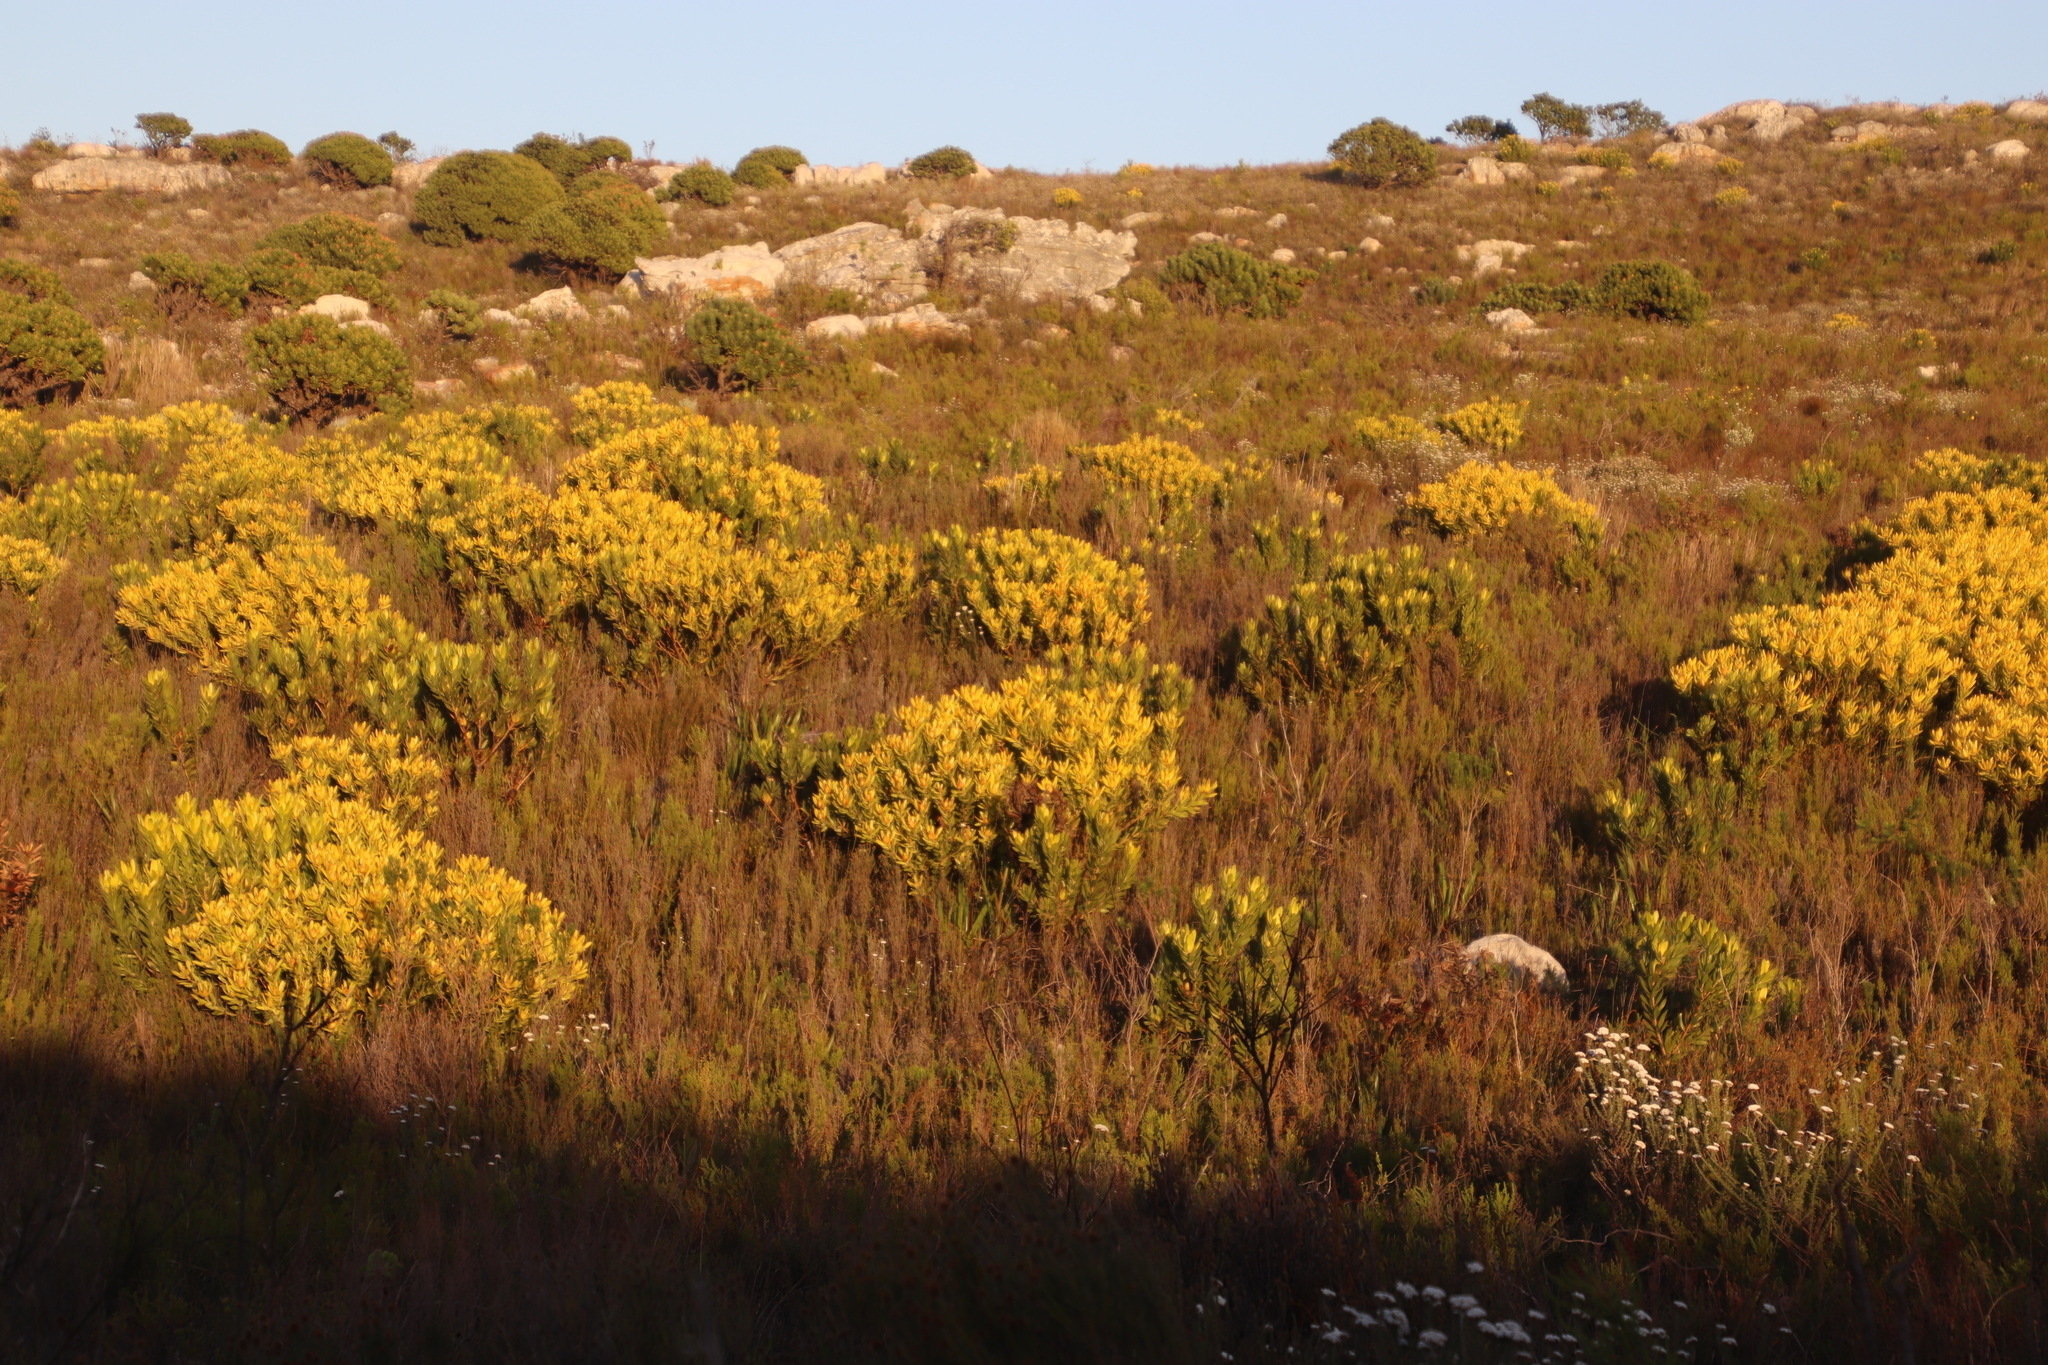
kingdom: Plantae
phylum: Tracheophyta
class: Magnoliopsida
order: Proteales
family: Proteaceae
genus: Leucadendron
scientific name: Leucadendron laureolum
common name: Golden sunshinebush
